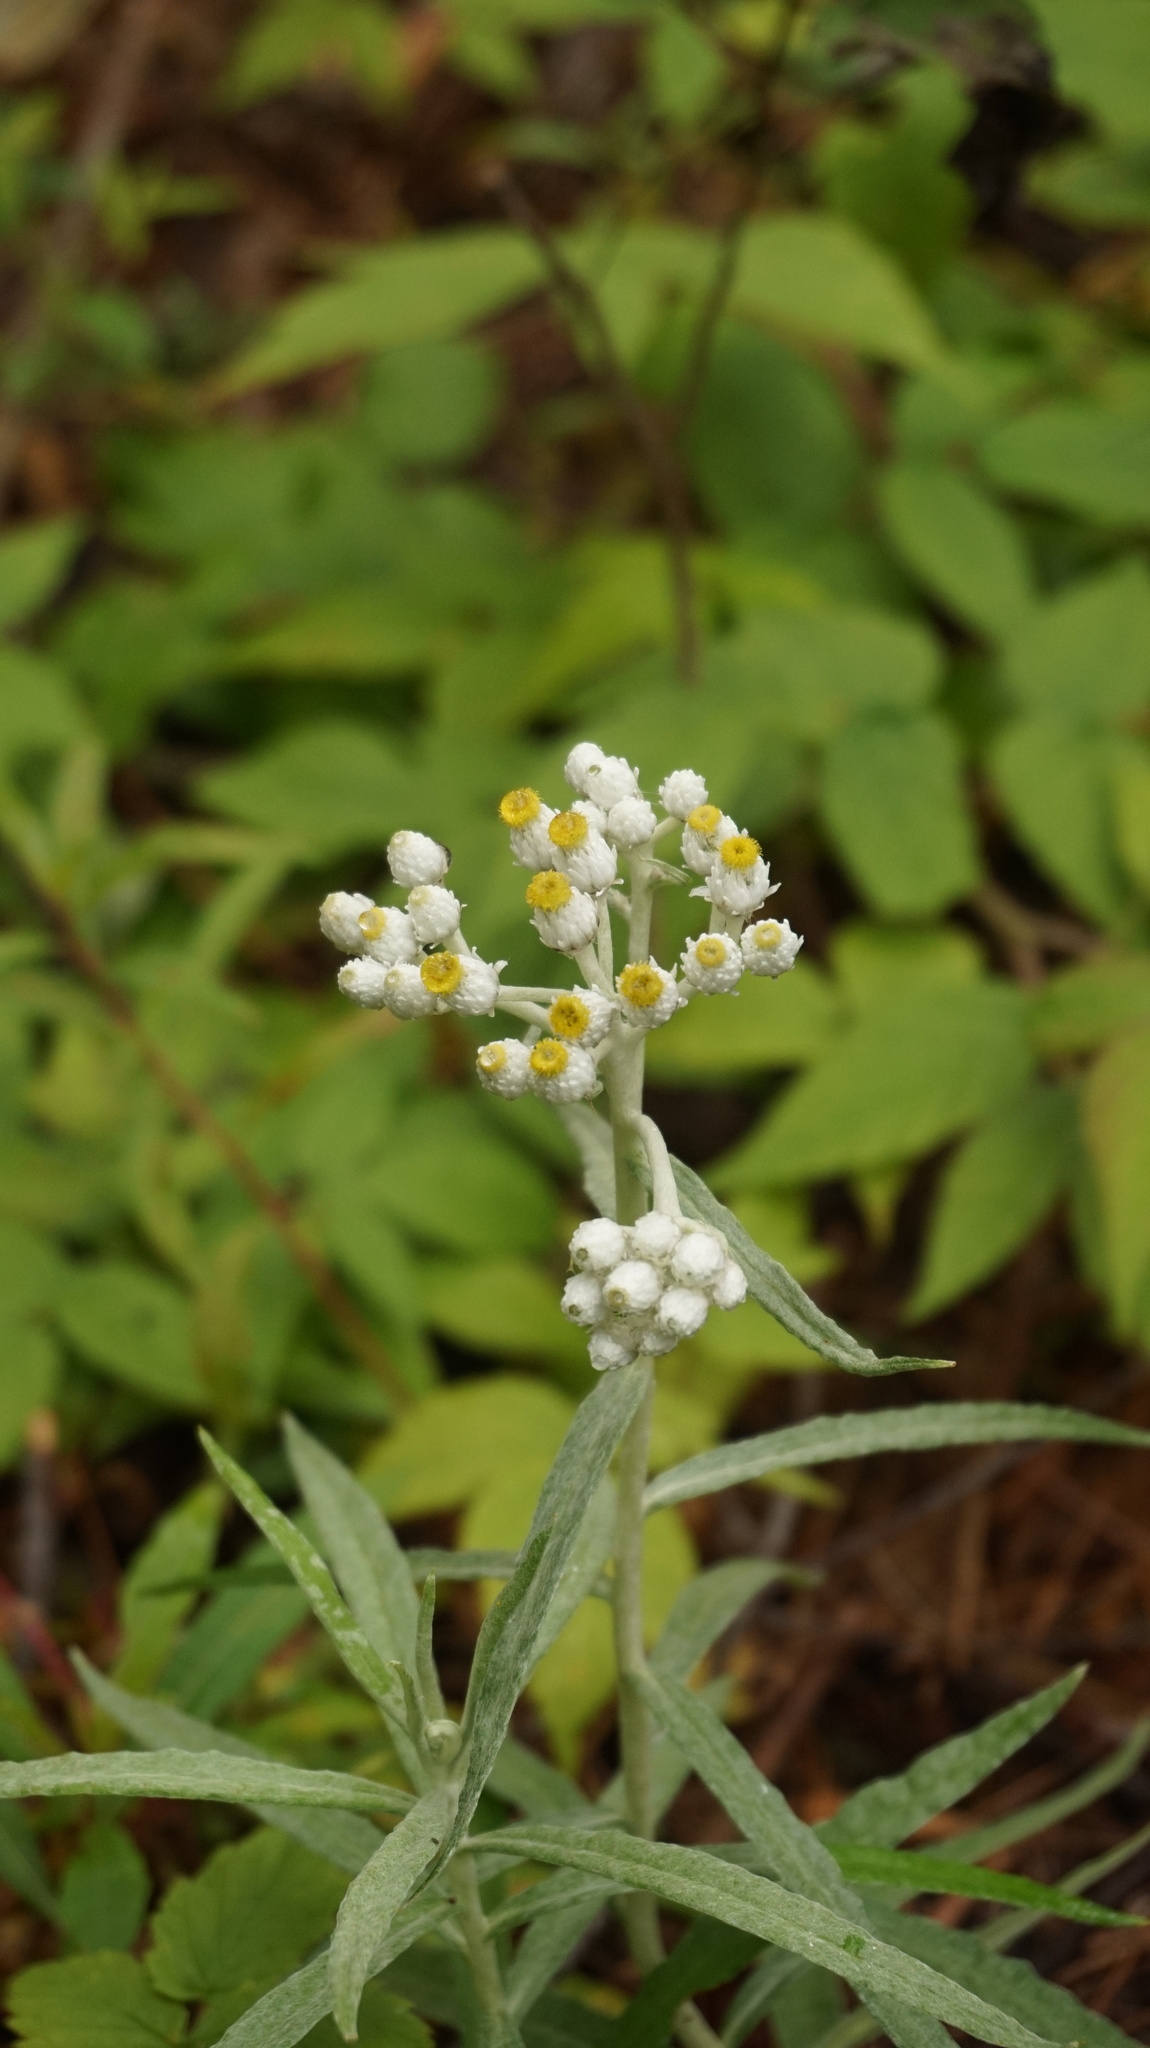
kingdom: Plantae
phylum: Tracheophyta
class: Magnoliopsida
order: Asterales
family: Asteraceae
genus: Anaphalis
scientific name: Anaphalis margaritacea
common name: Pearly everlasting
